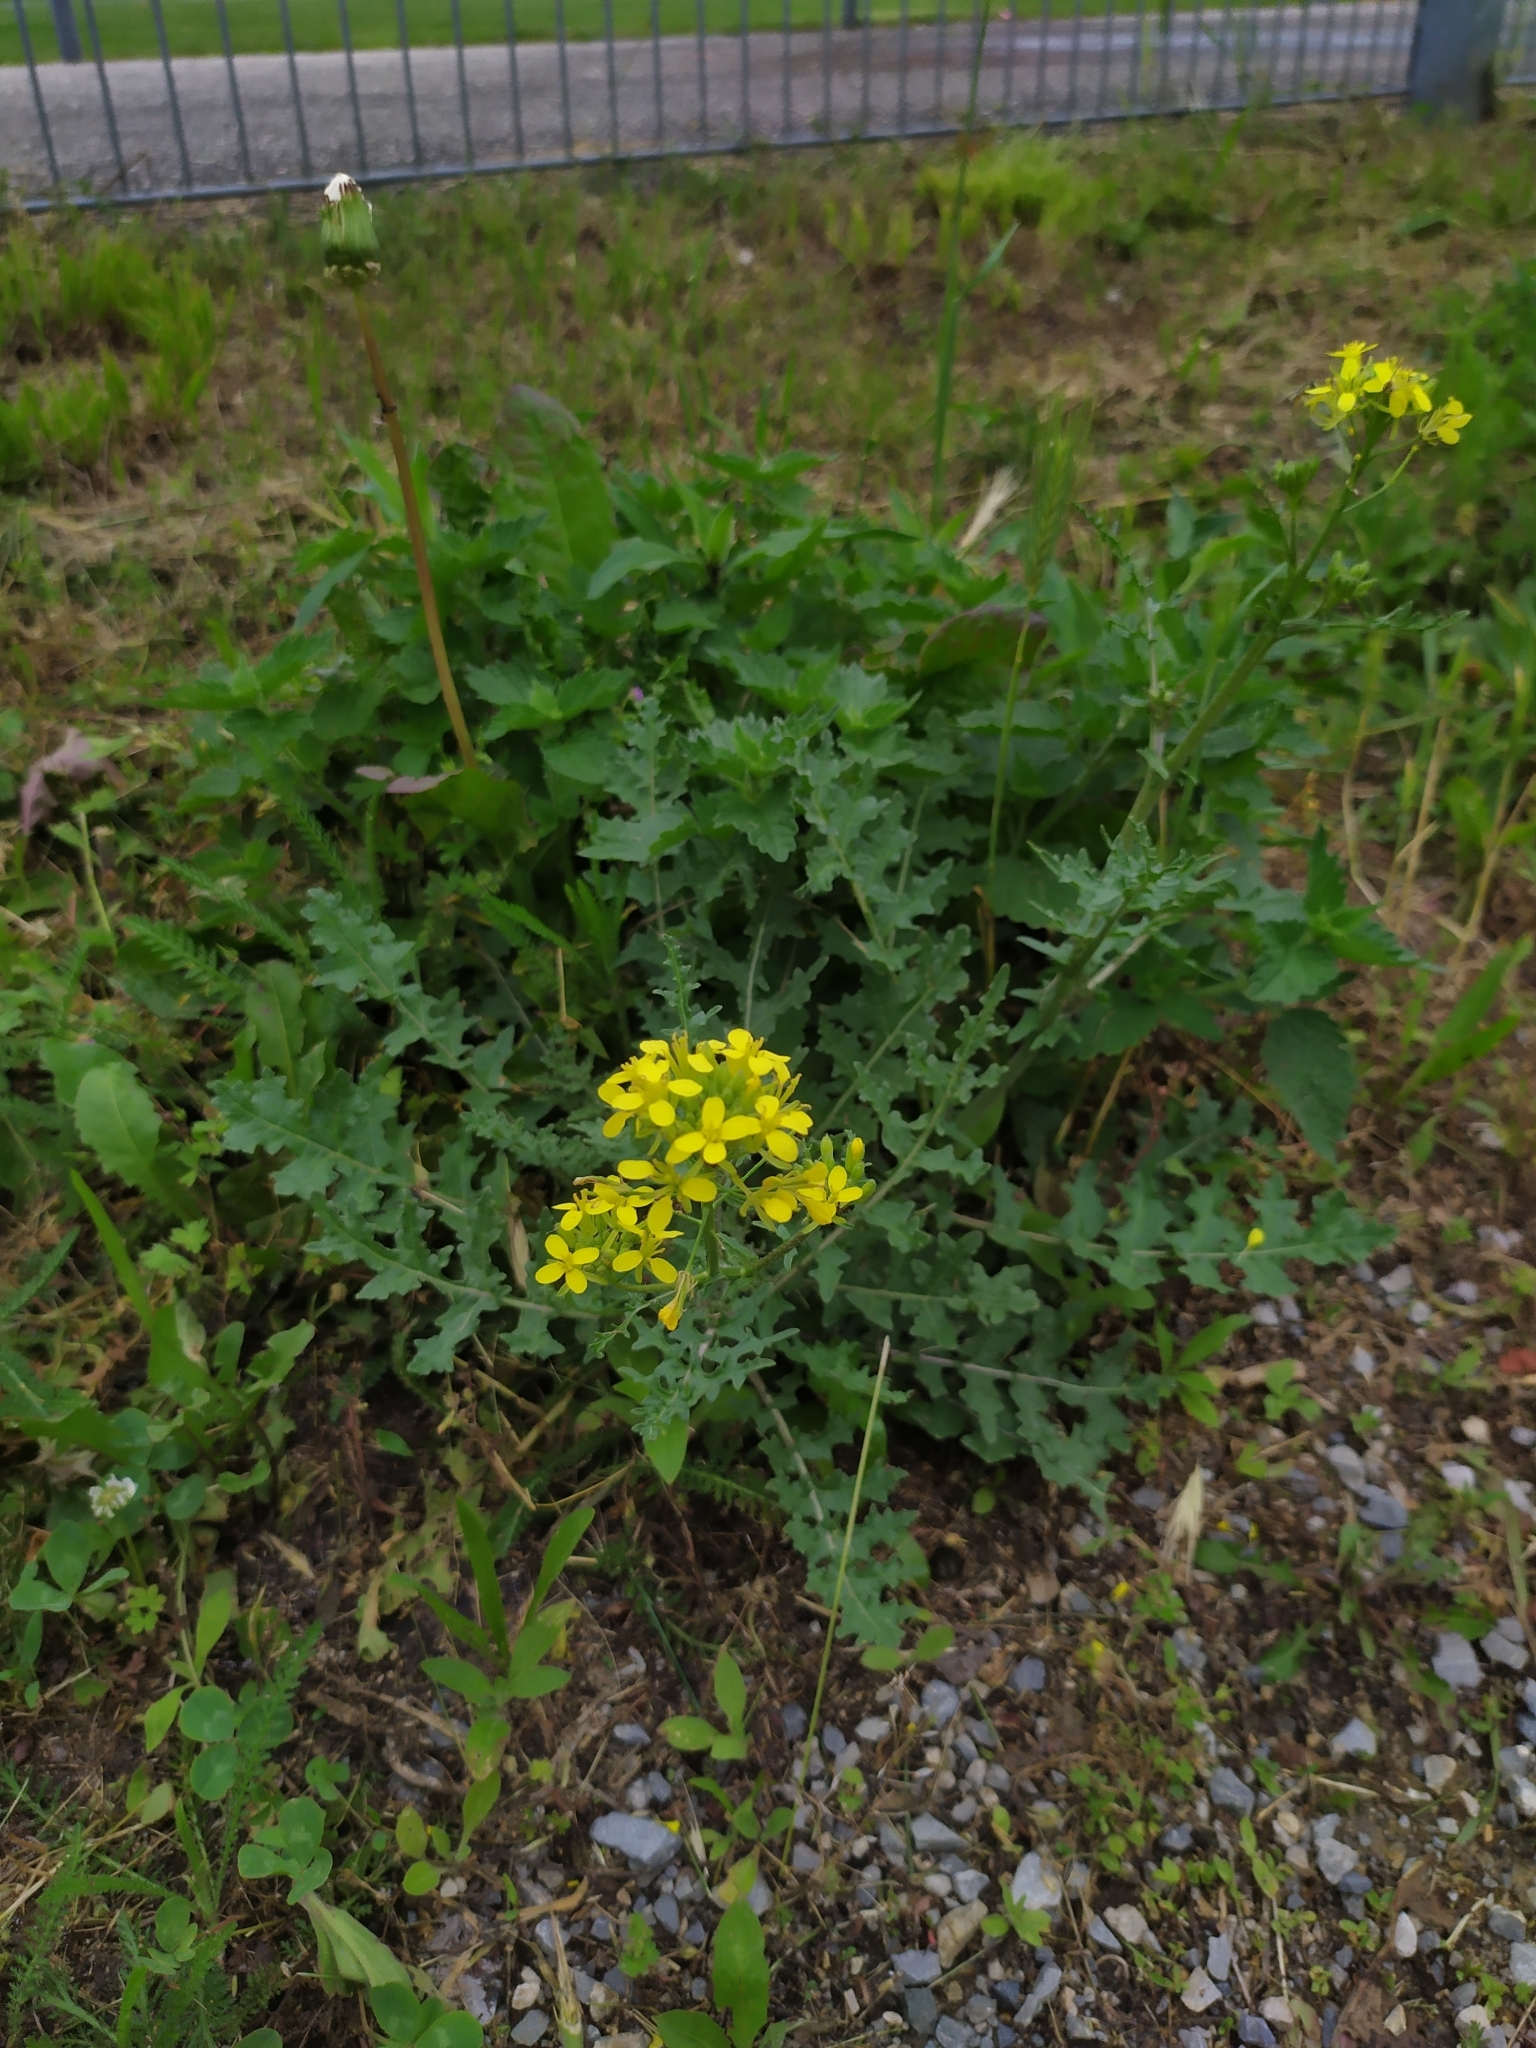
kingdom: Plantae
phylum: Tracheophyta
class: Magnoliopsida
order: Brassicales
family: Brassicaceae
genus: Erucastrum
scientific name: Erucastrum nasturtiifolium
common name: Watercress-leaf rocket
